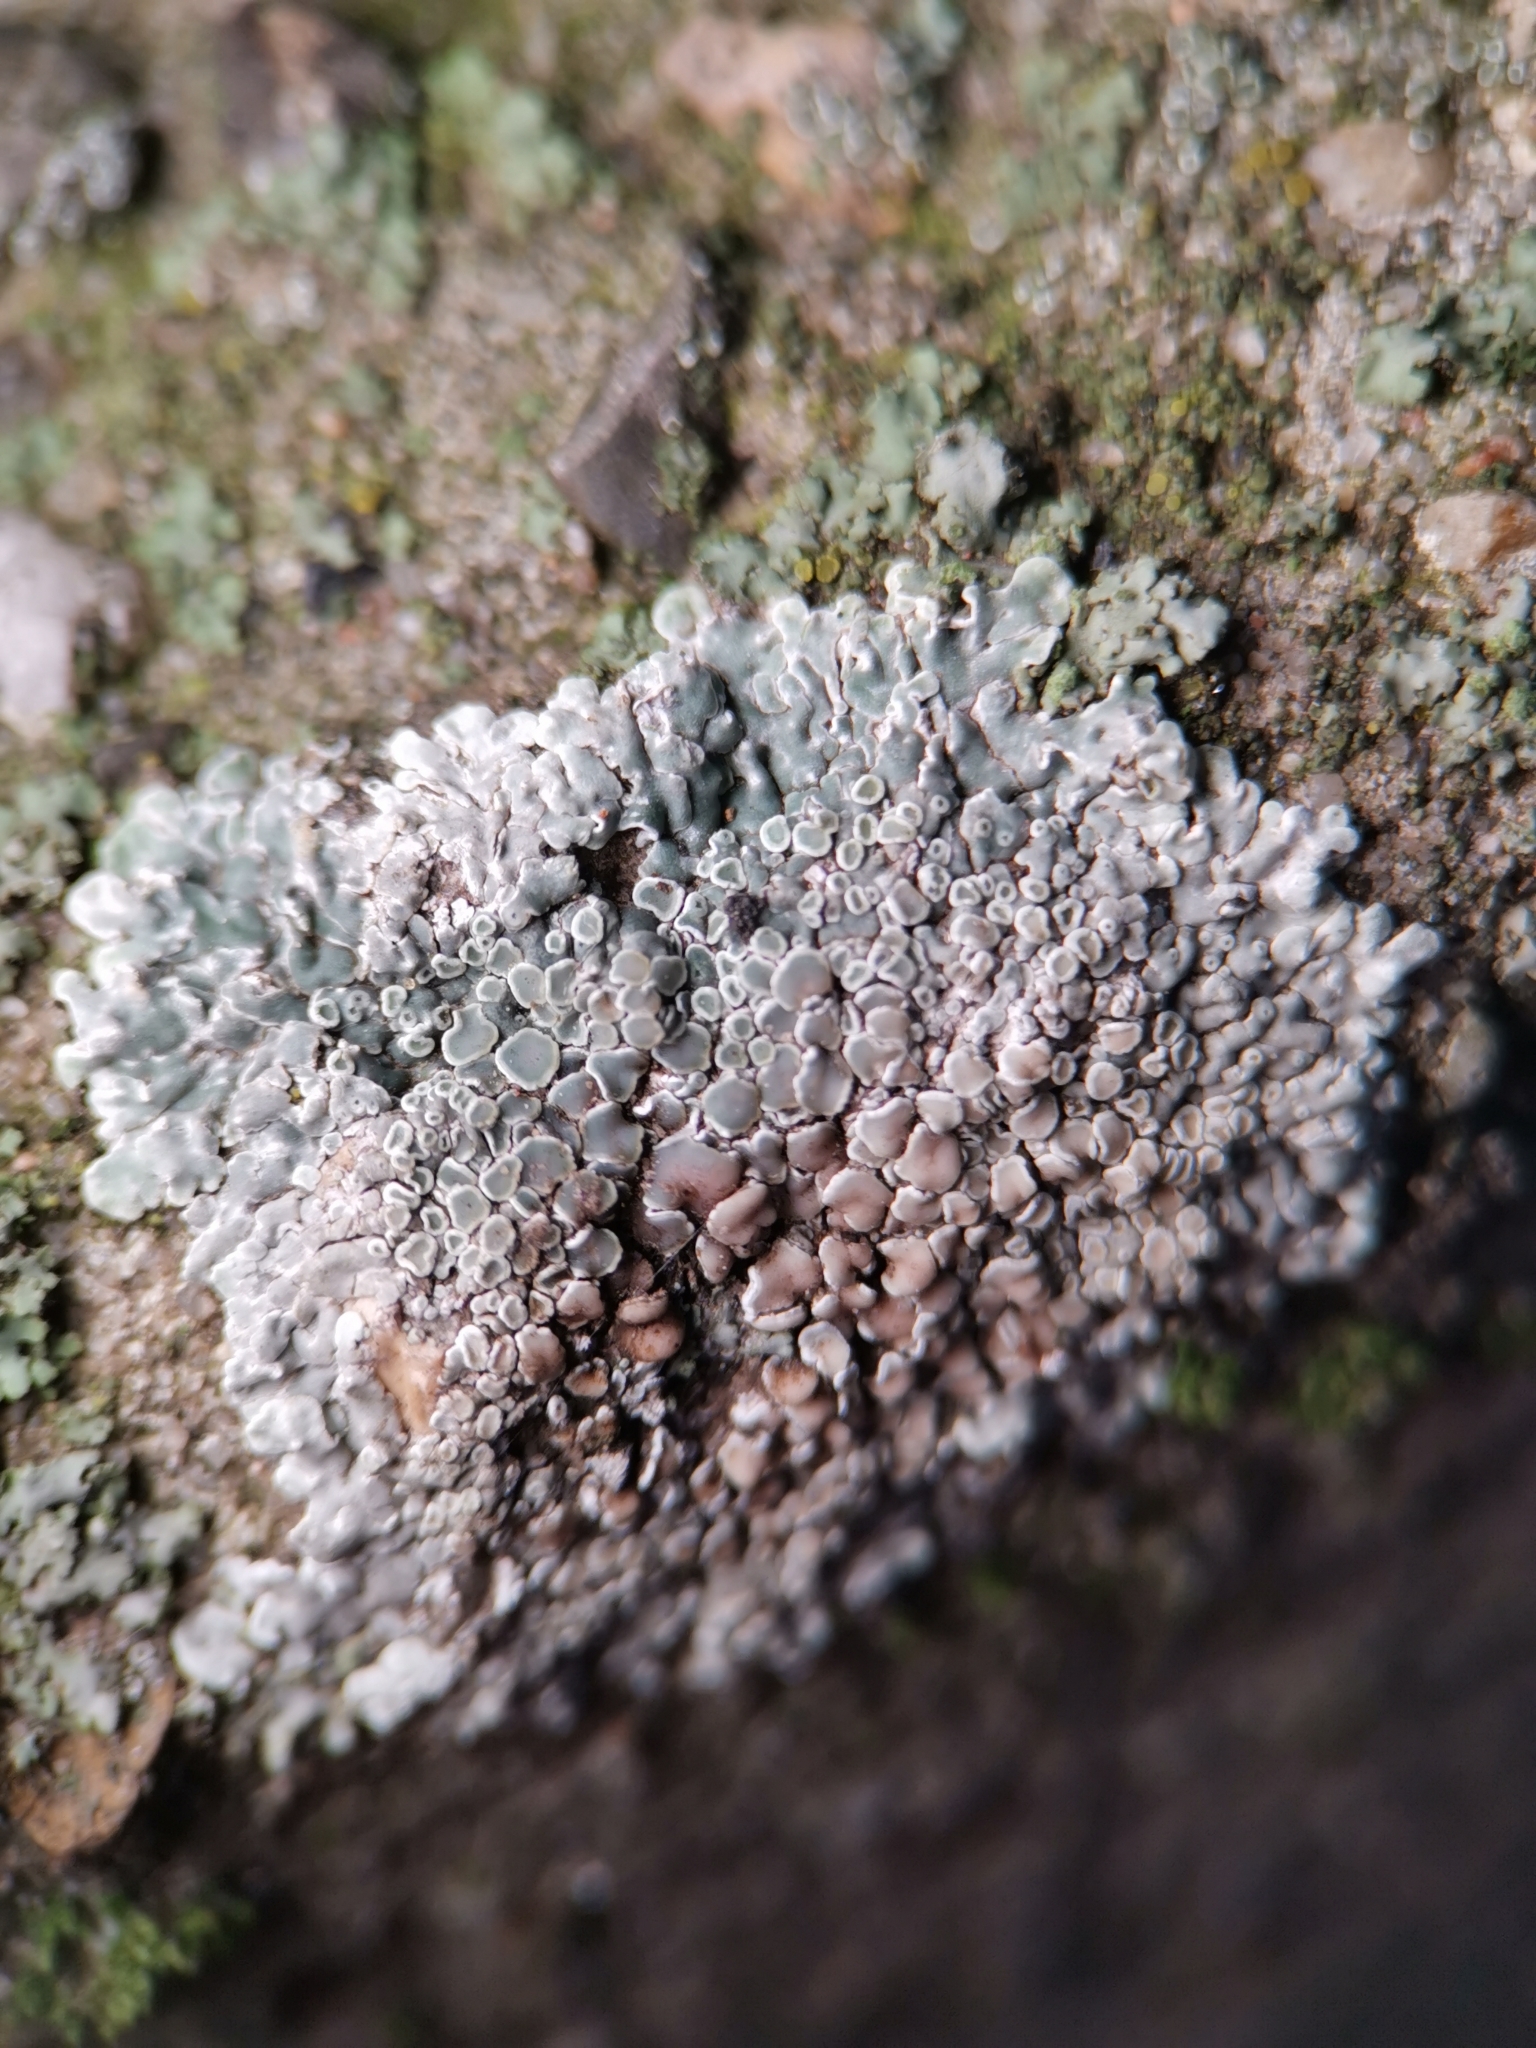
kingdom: Fungi
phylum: Ascomycota
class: Lecanoromycetes
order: Lecanorales
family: Lecanoraceae
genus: Protoparmeliopsis
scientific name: Protoparmeliopsis muralis
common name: Stonewall rim lichen
